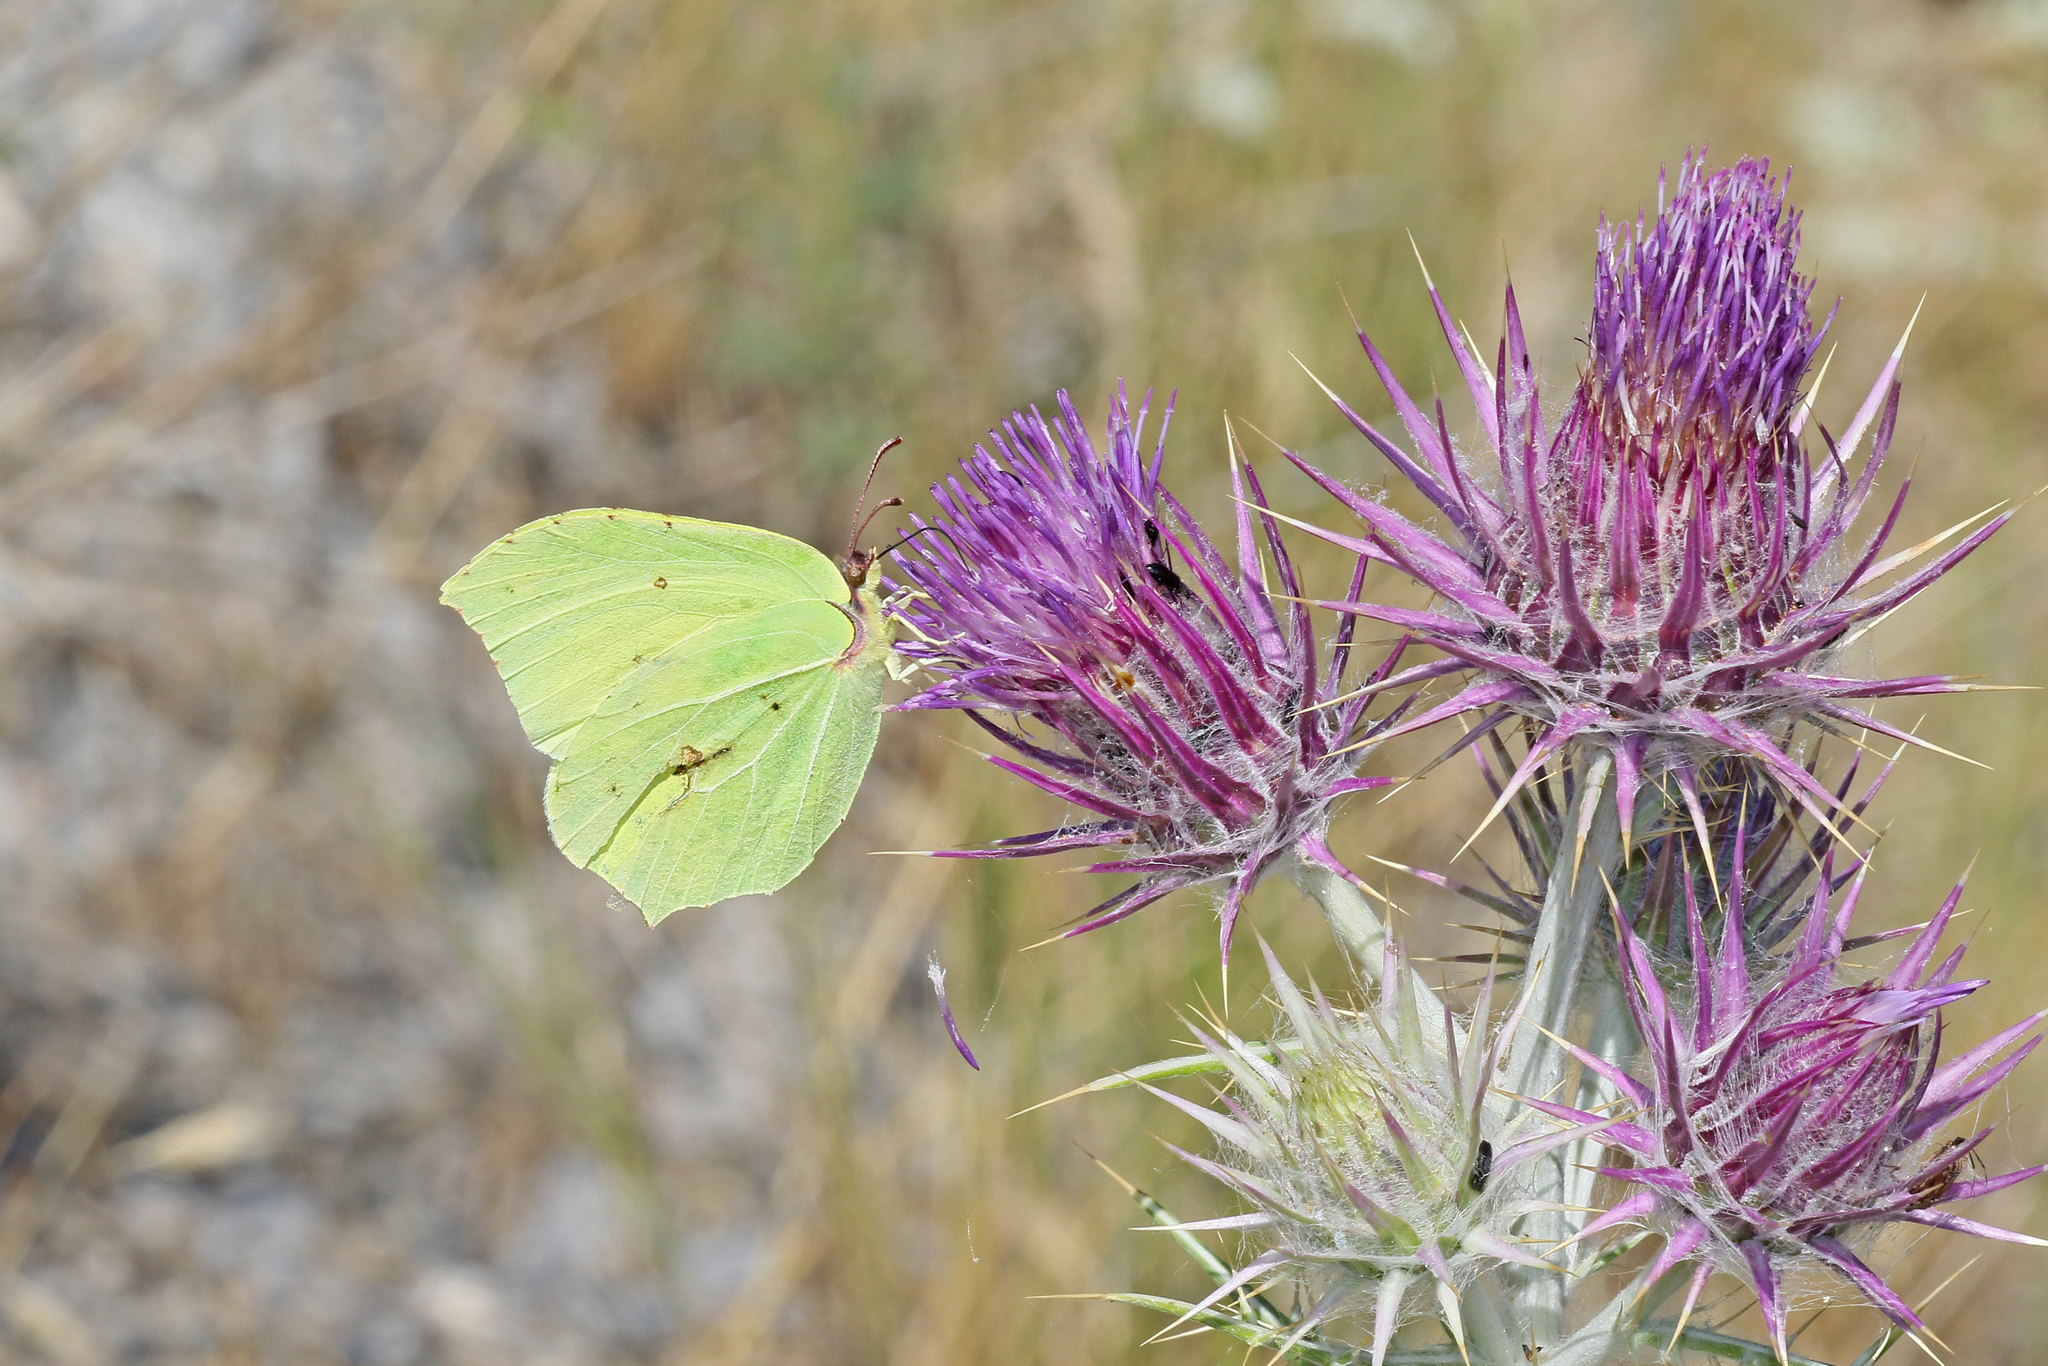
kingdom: Animalia
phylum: Arthropoda
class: Insecta
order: Lepidoptera
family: Pieridae
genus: Gonepteryx
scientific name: Gonepteryx rhamni
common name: Brimstone
